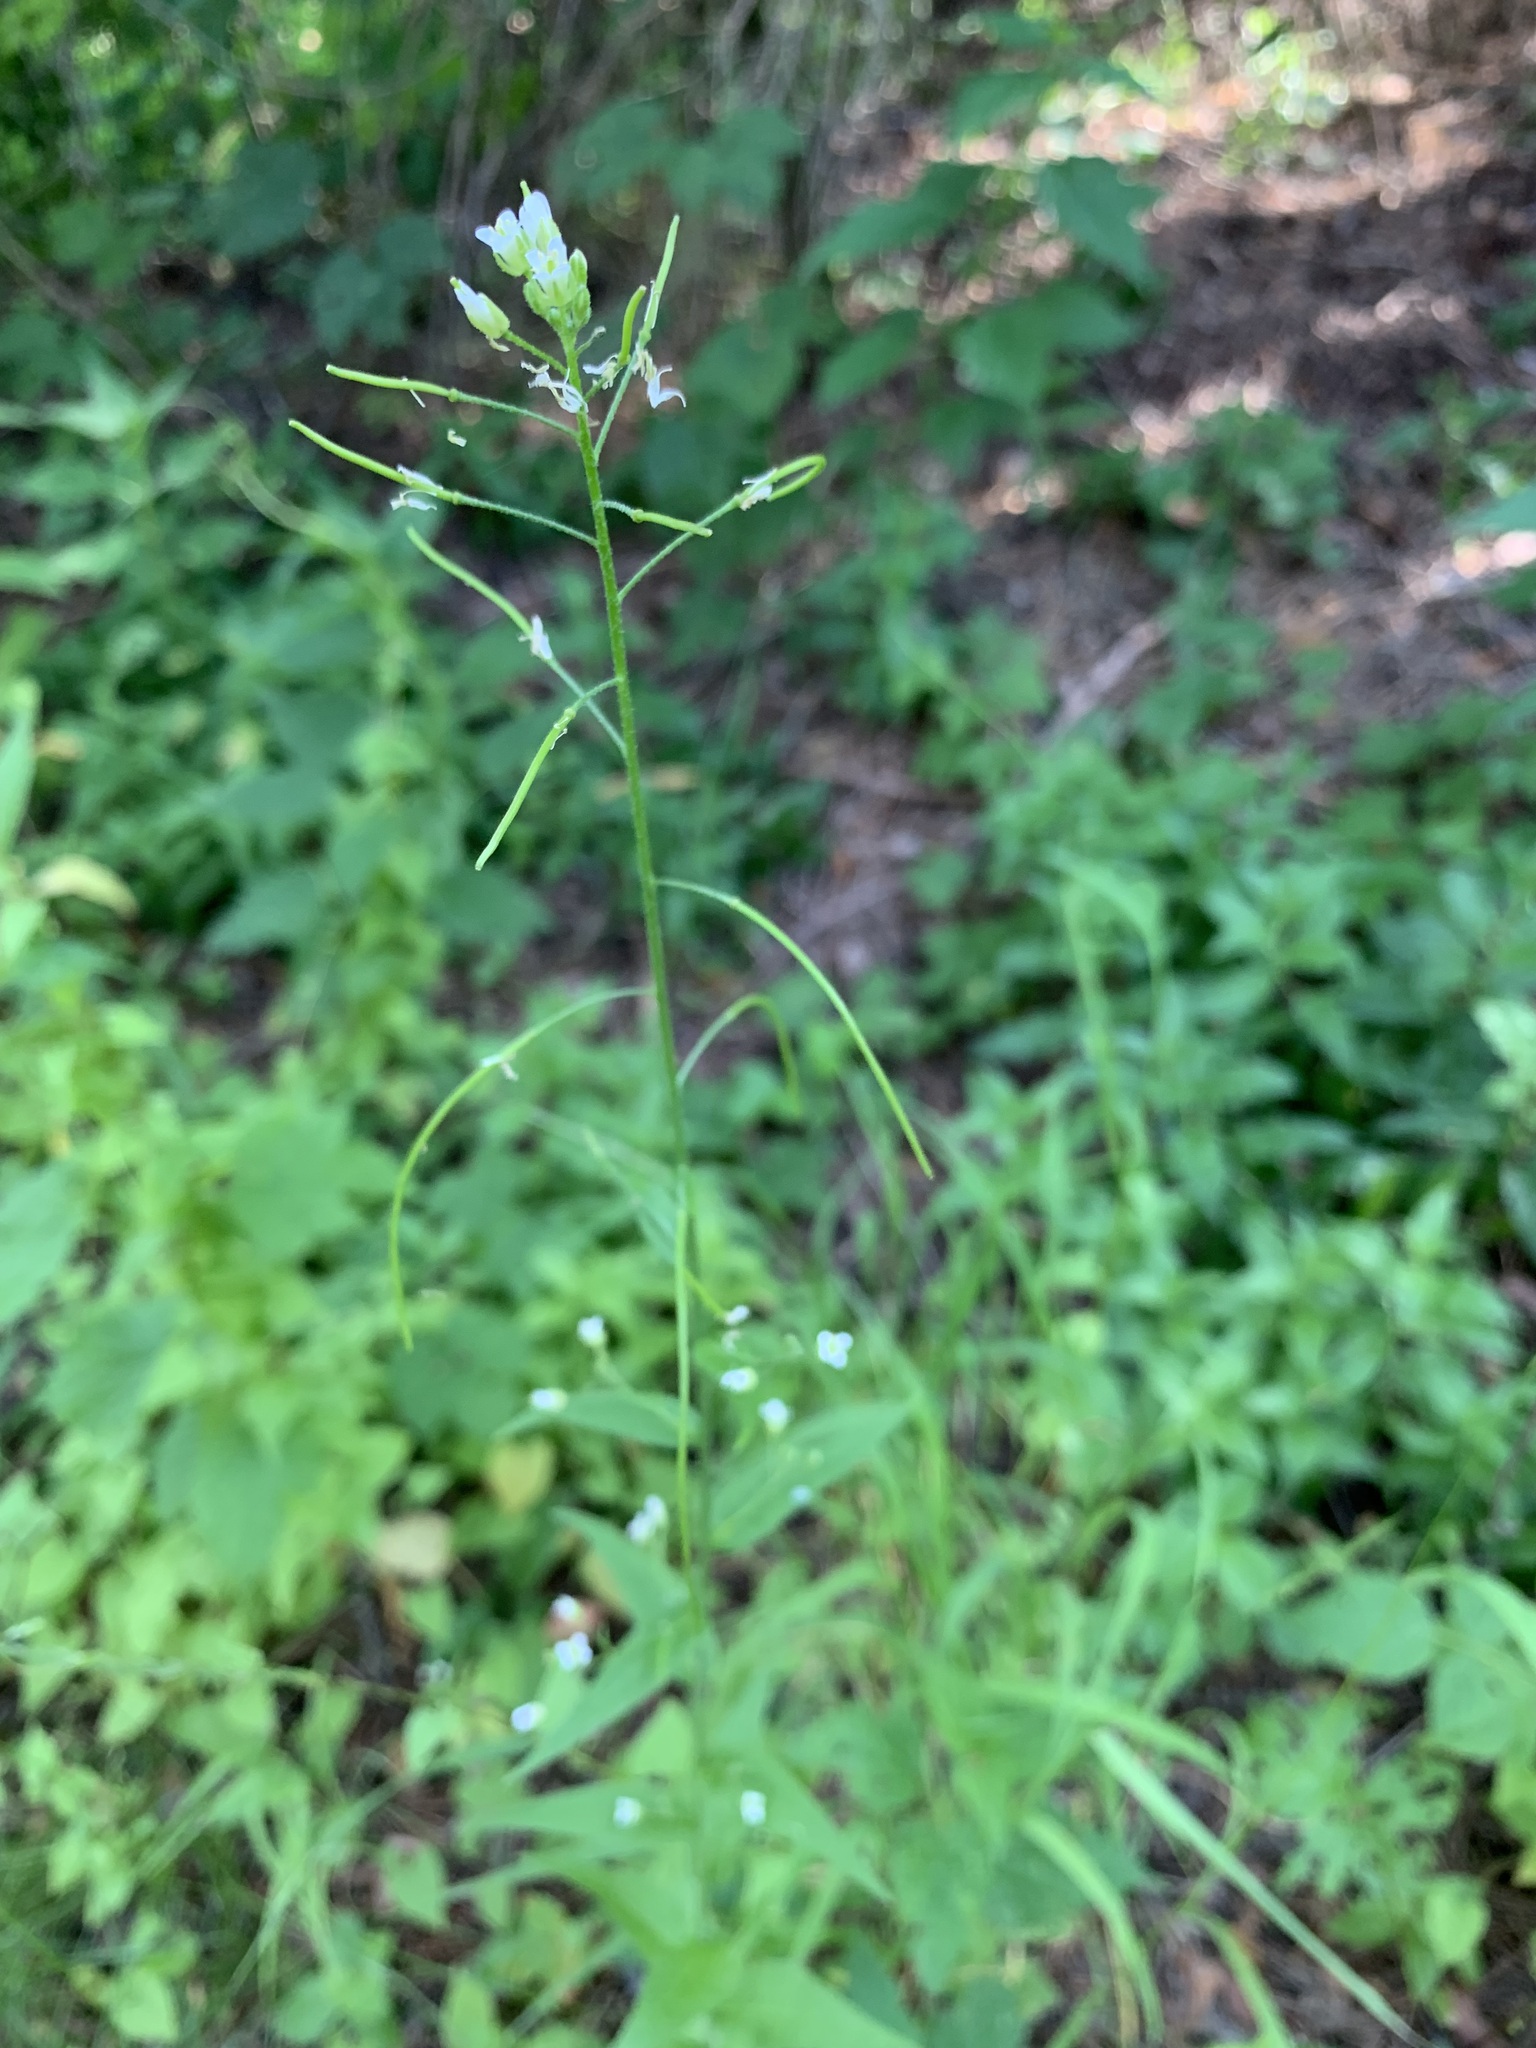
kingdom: Plantae
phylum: Tracheophyta
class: Magnoliopsida
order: Brassicales
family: Brassicaceae
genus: Catolobus
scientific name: Catolobus pendulus
